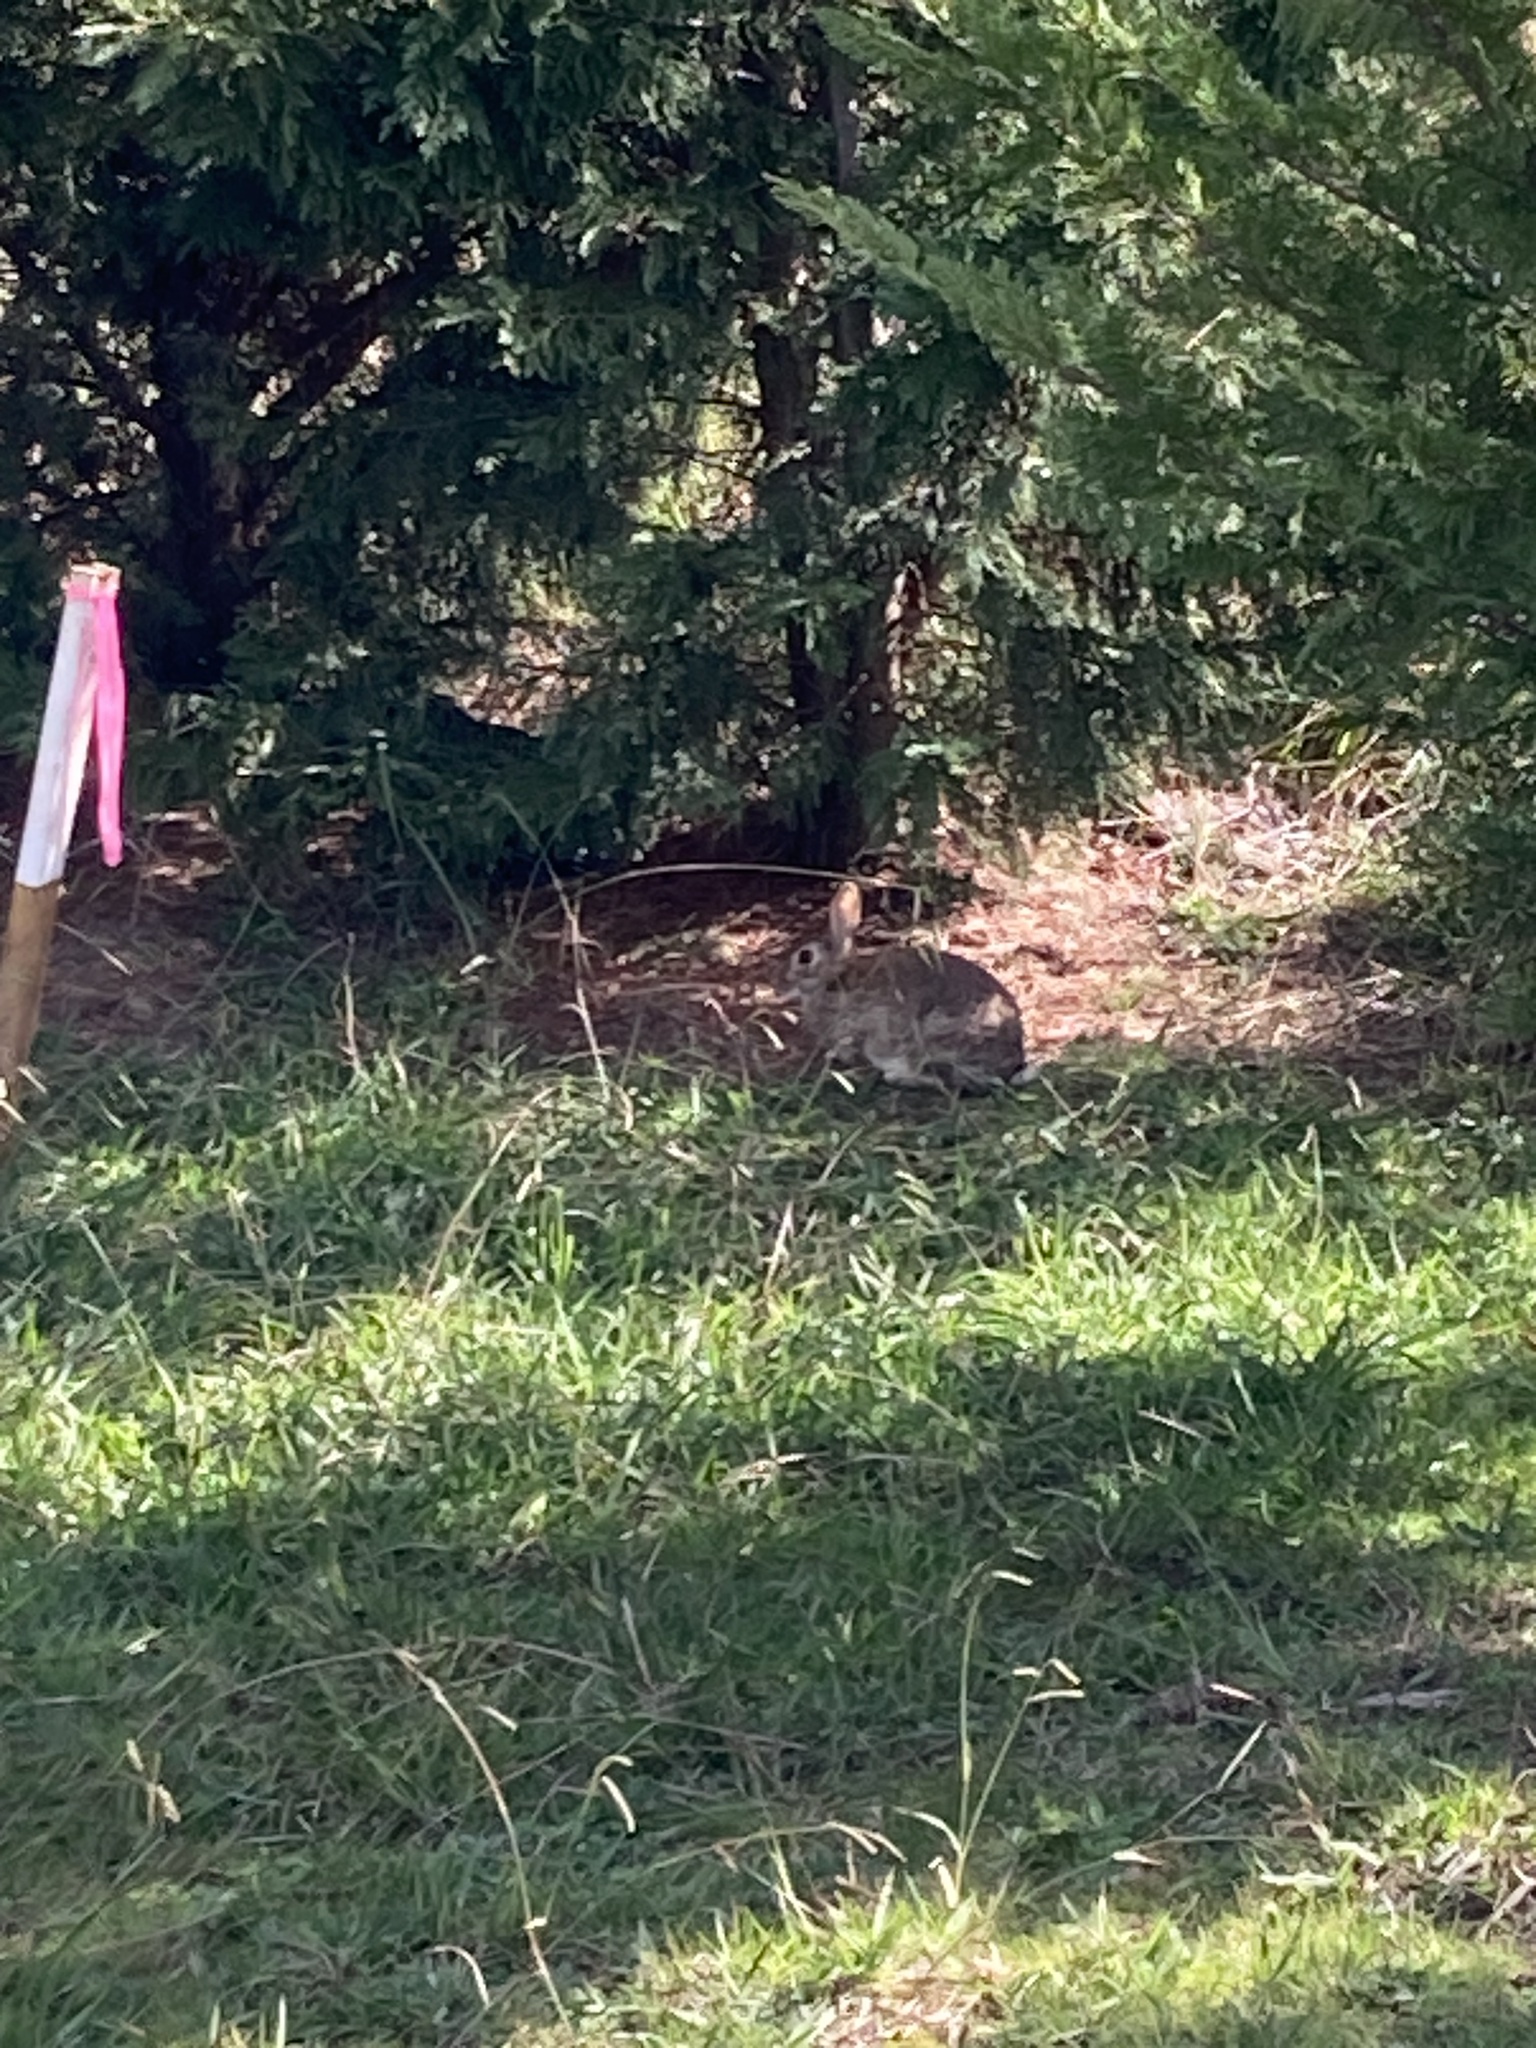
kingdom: Animalia
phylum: Chordata
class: Mammalia
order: Lagomorpha
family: Leporidae
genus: Oryctolagus
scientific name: Oryctolagus cuniculus
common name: European rabbit
